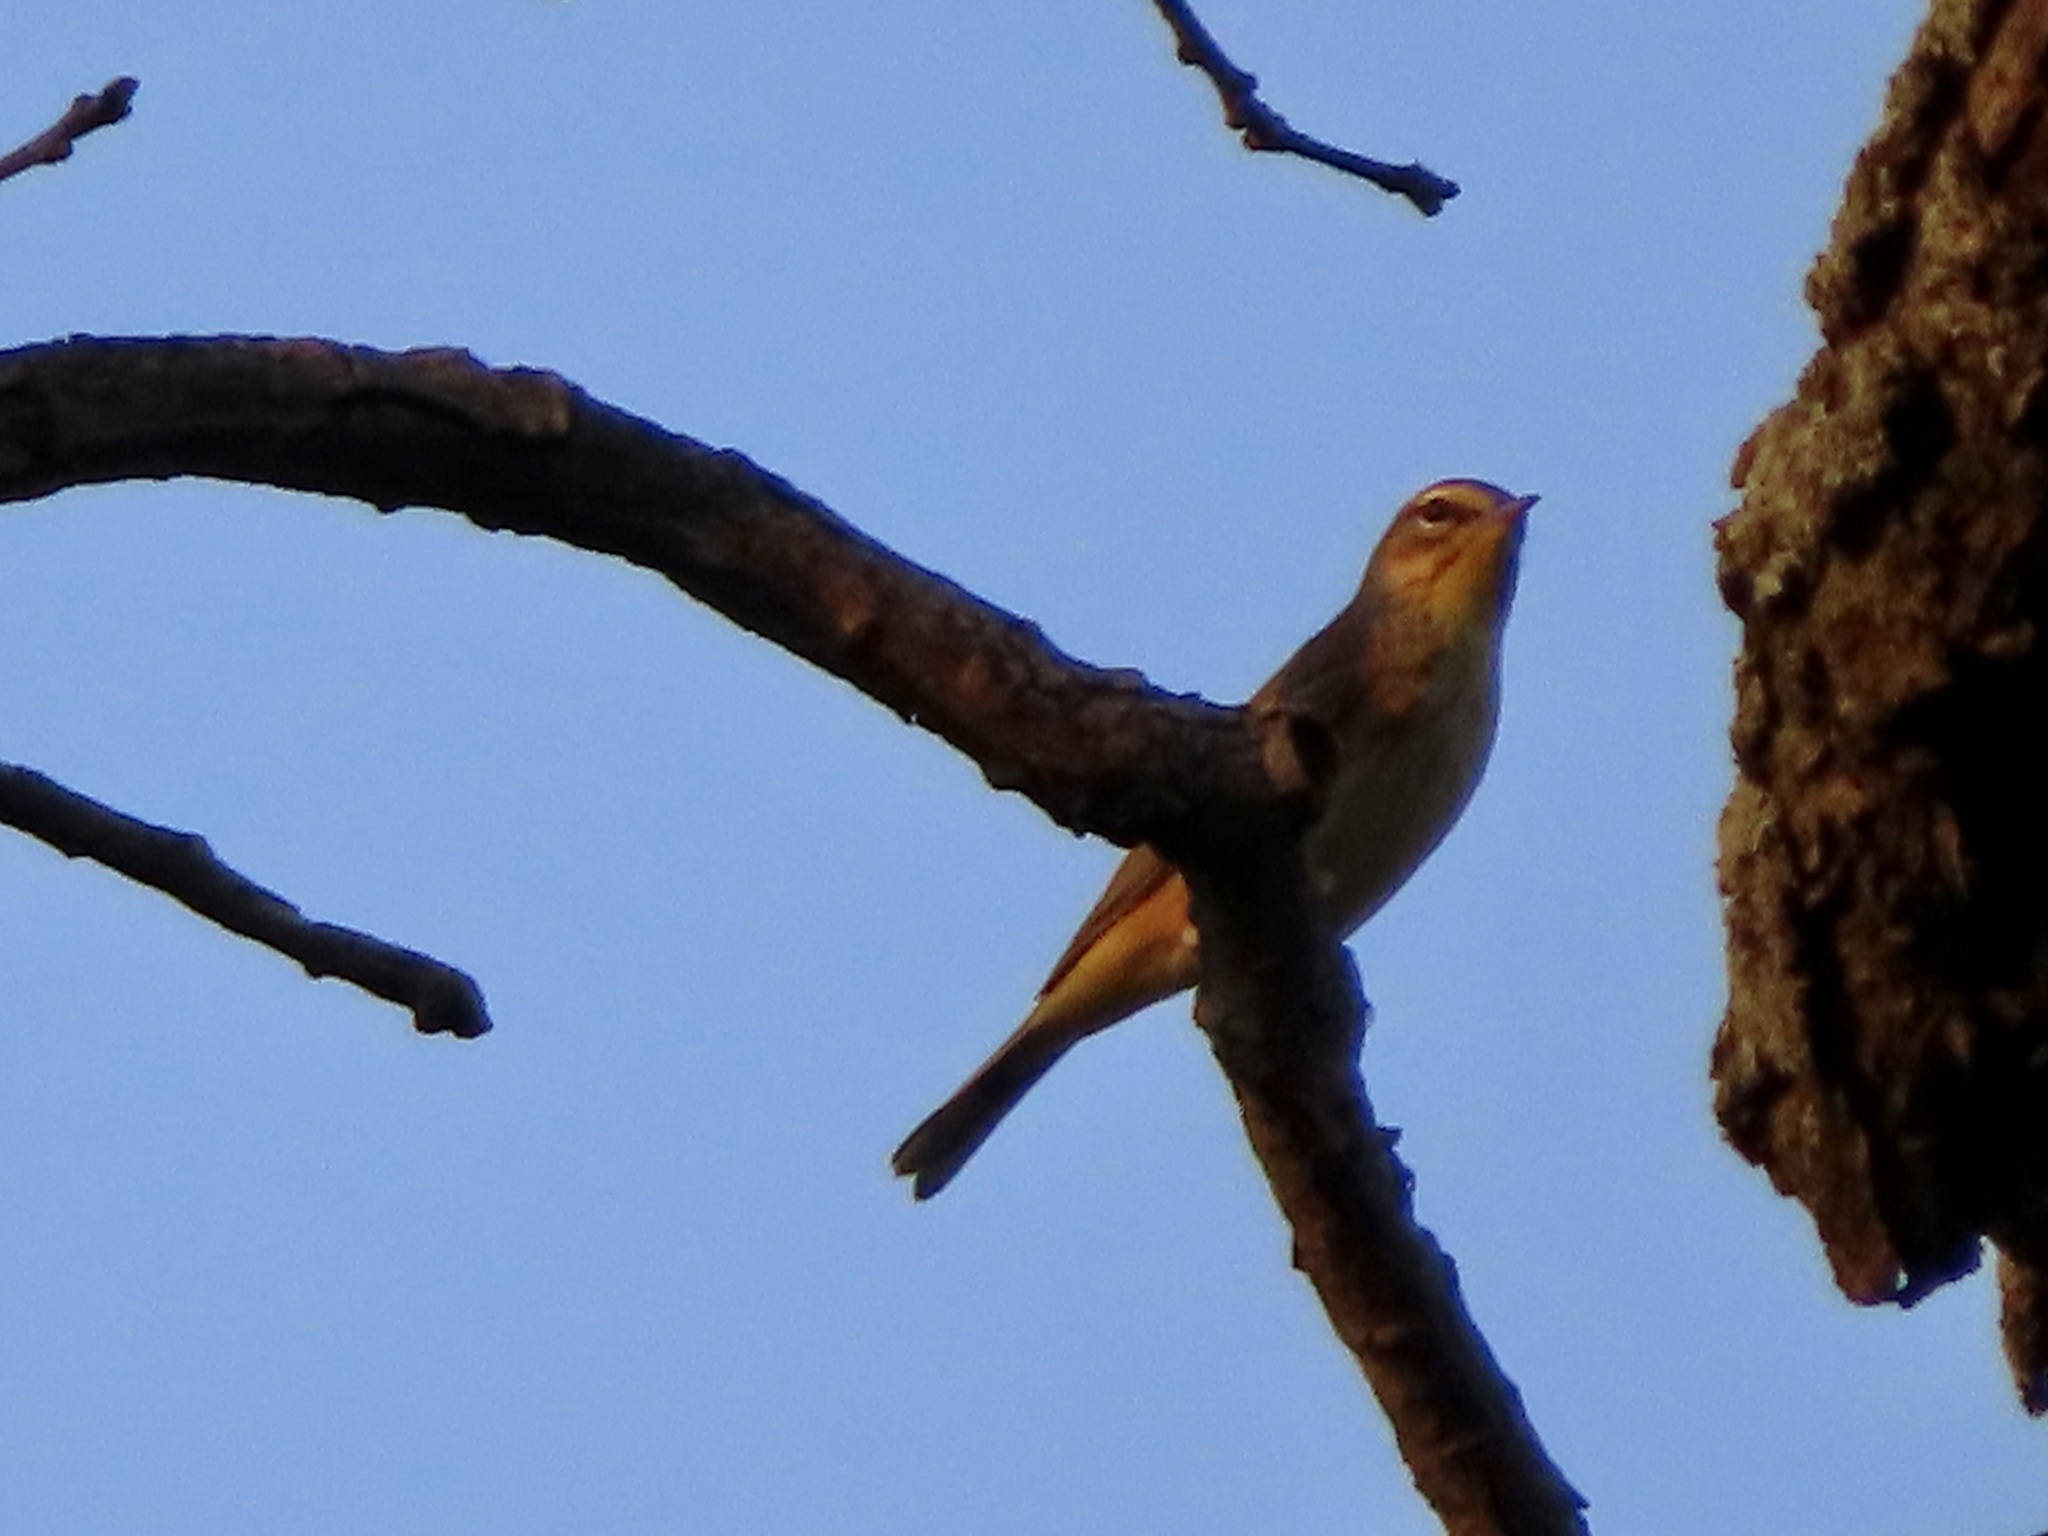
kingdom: Animalia
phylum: Chordata
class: Aves
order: Passeriformes
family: Parulidae
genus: Setophaga
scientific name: Setophaga palmarum
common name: Palm warbler
